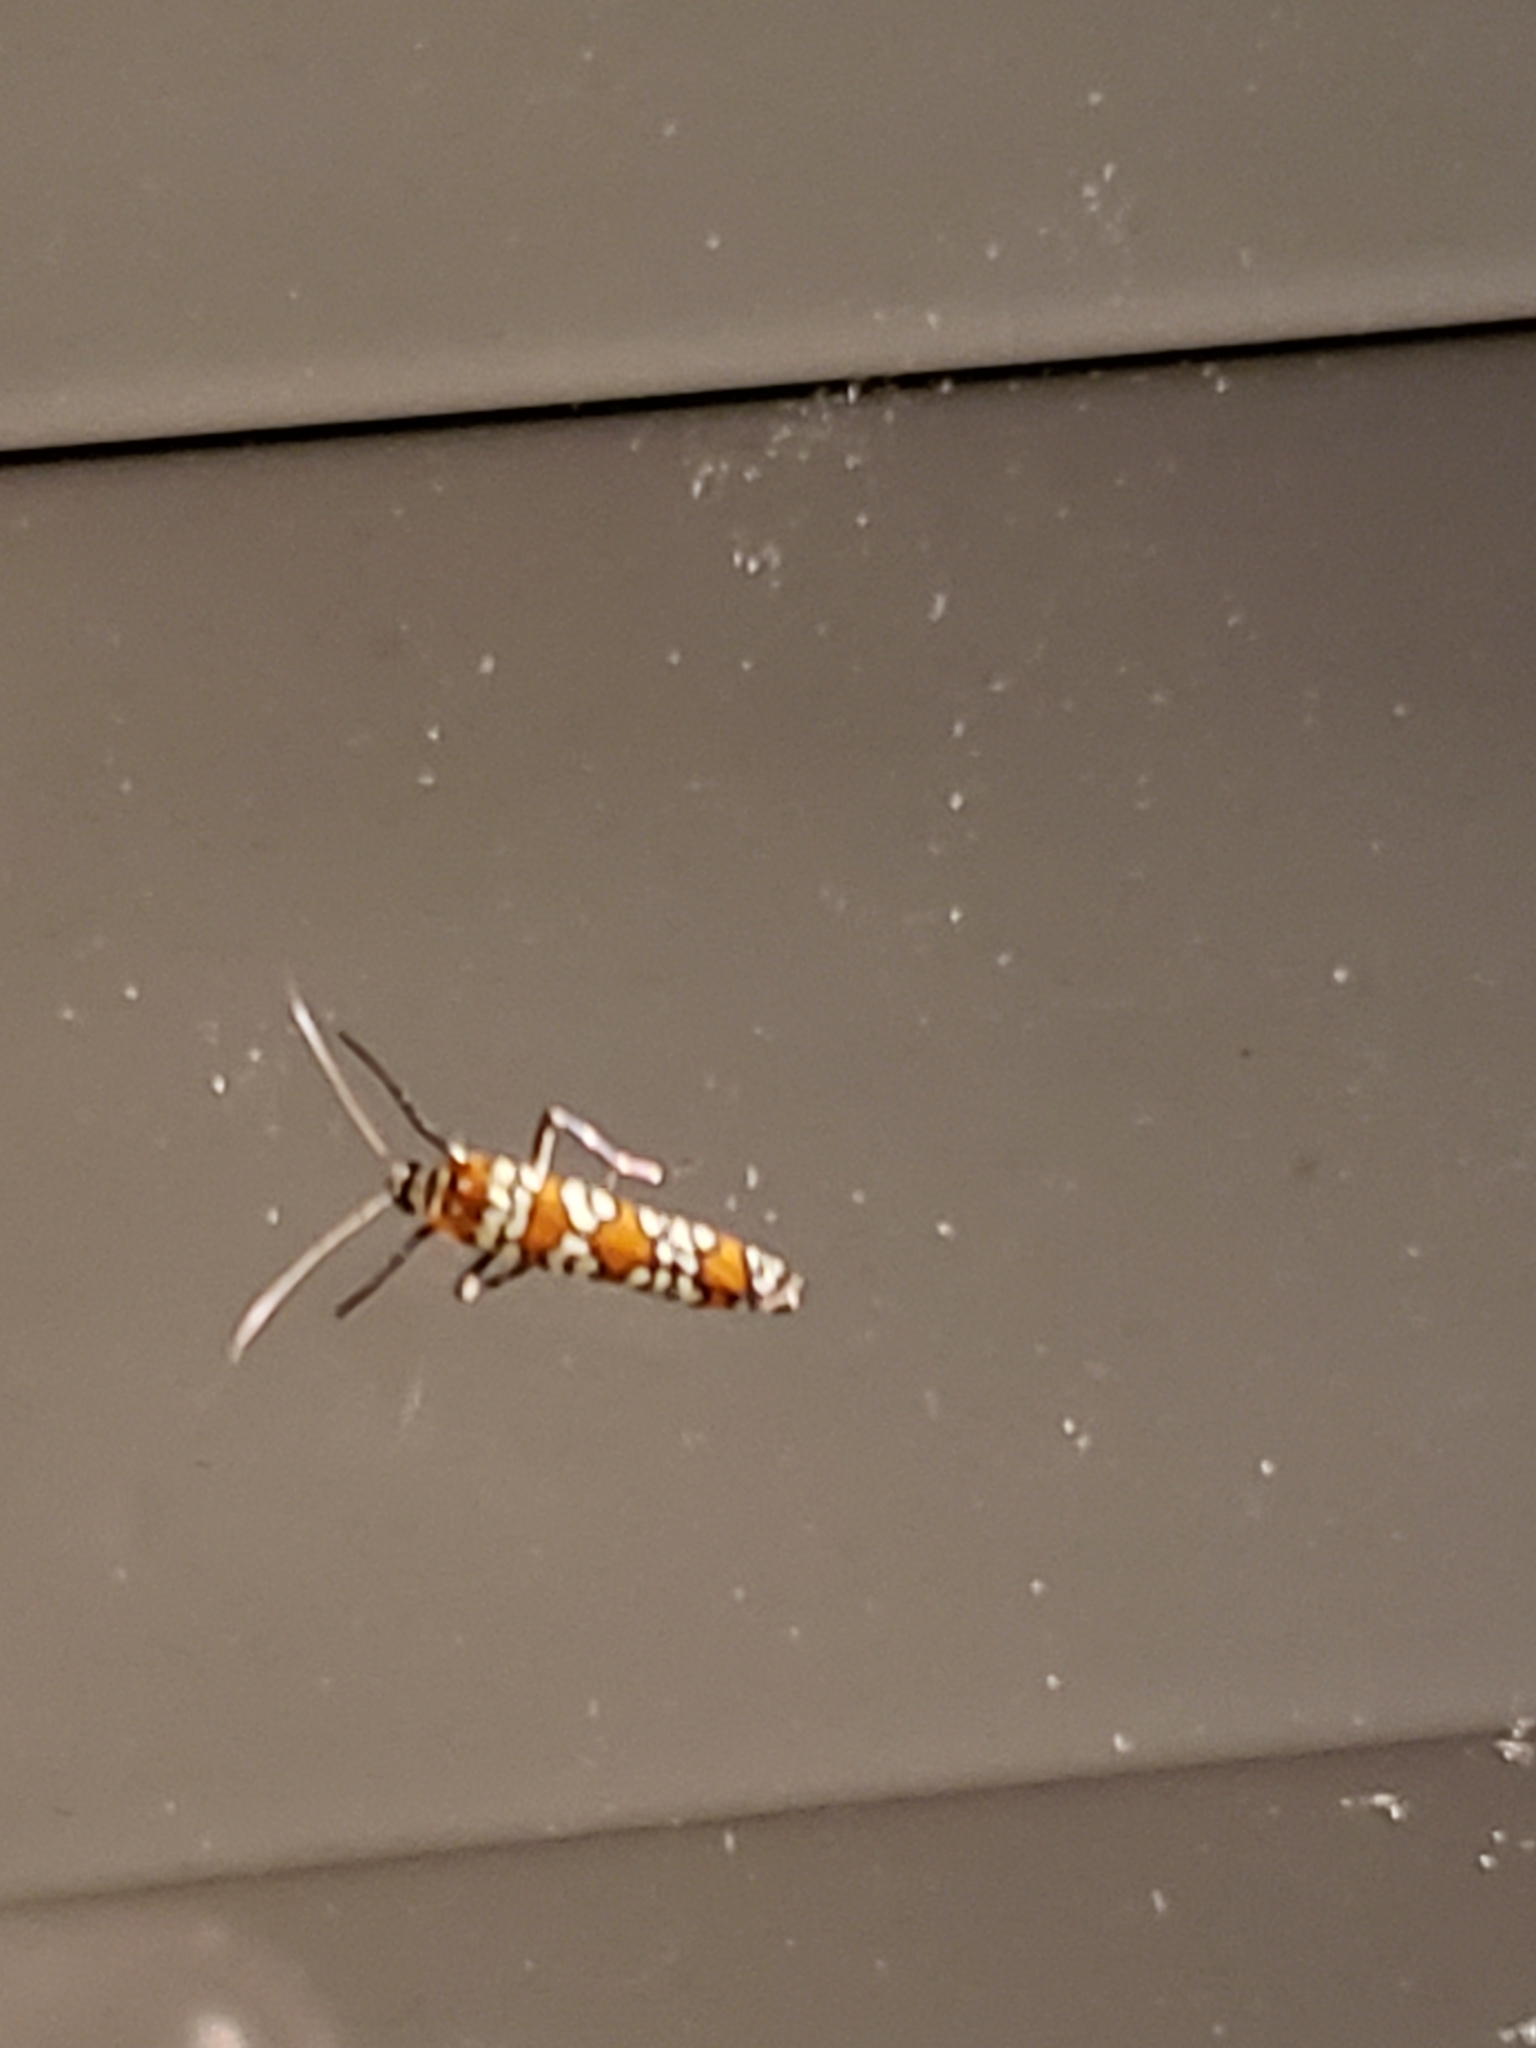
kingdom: Animalia
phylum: Arthropoda
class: Insecta
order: Lepidoptera
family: Attevidae
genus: Atteva
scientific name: Atteva punctella
